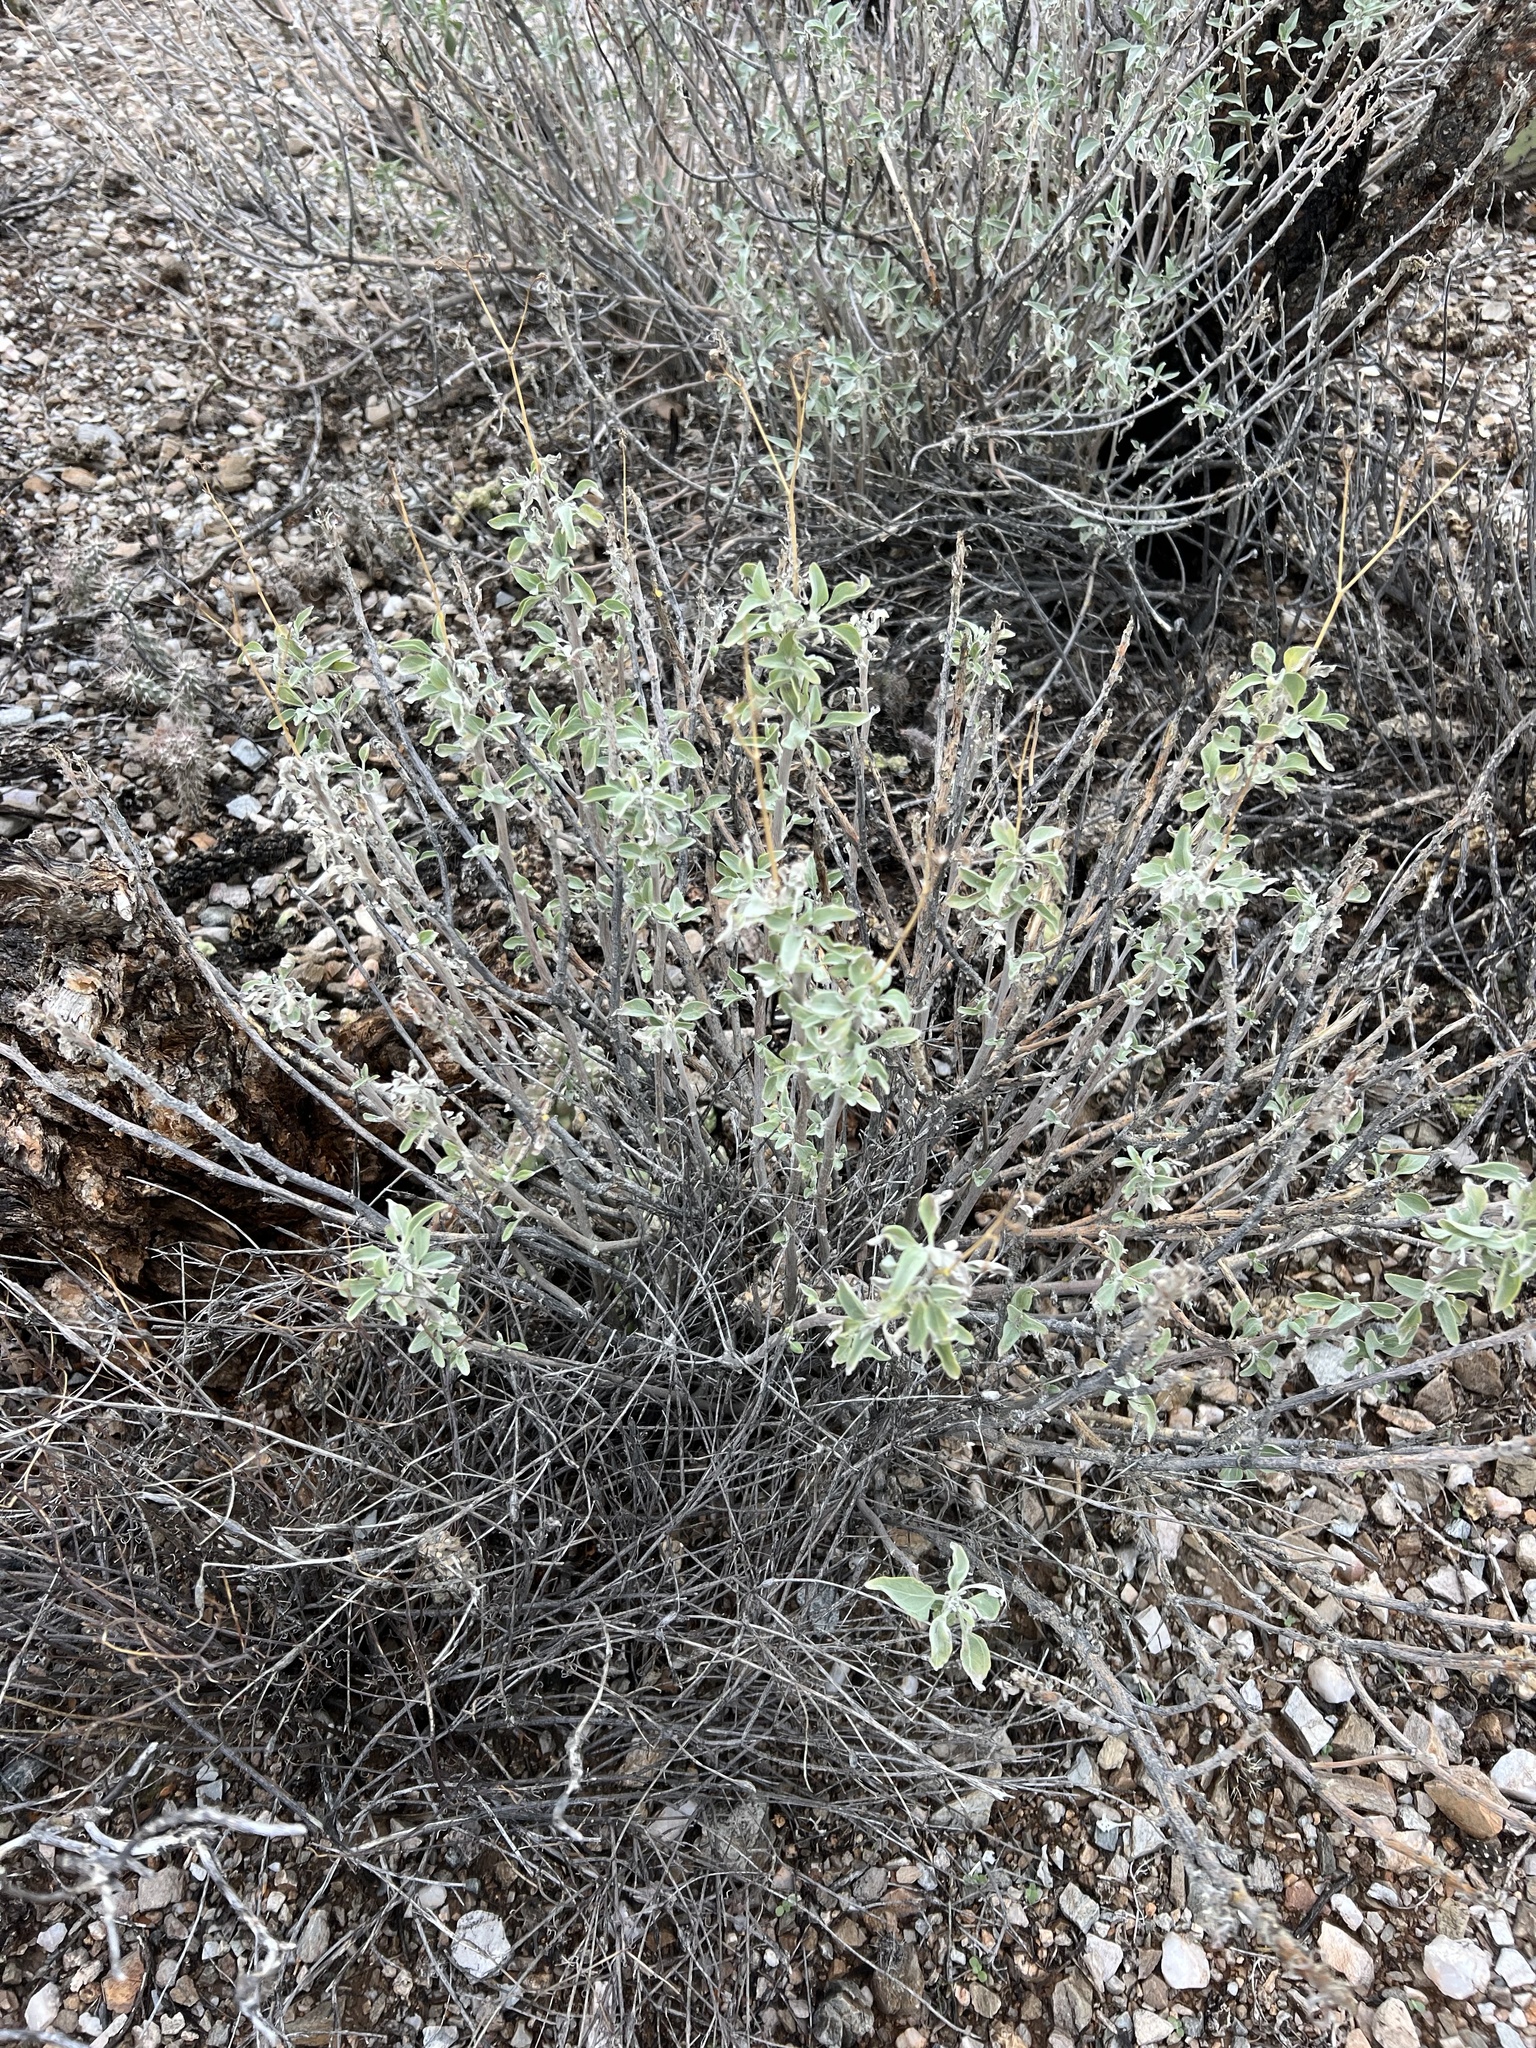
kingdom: Plantae
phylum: Tracheophyta
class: Magnoliopsida
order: Asterales
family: Asteraceae
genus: Encelia
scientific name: Encelia farinosa
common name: Brittlebush
